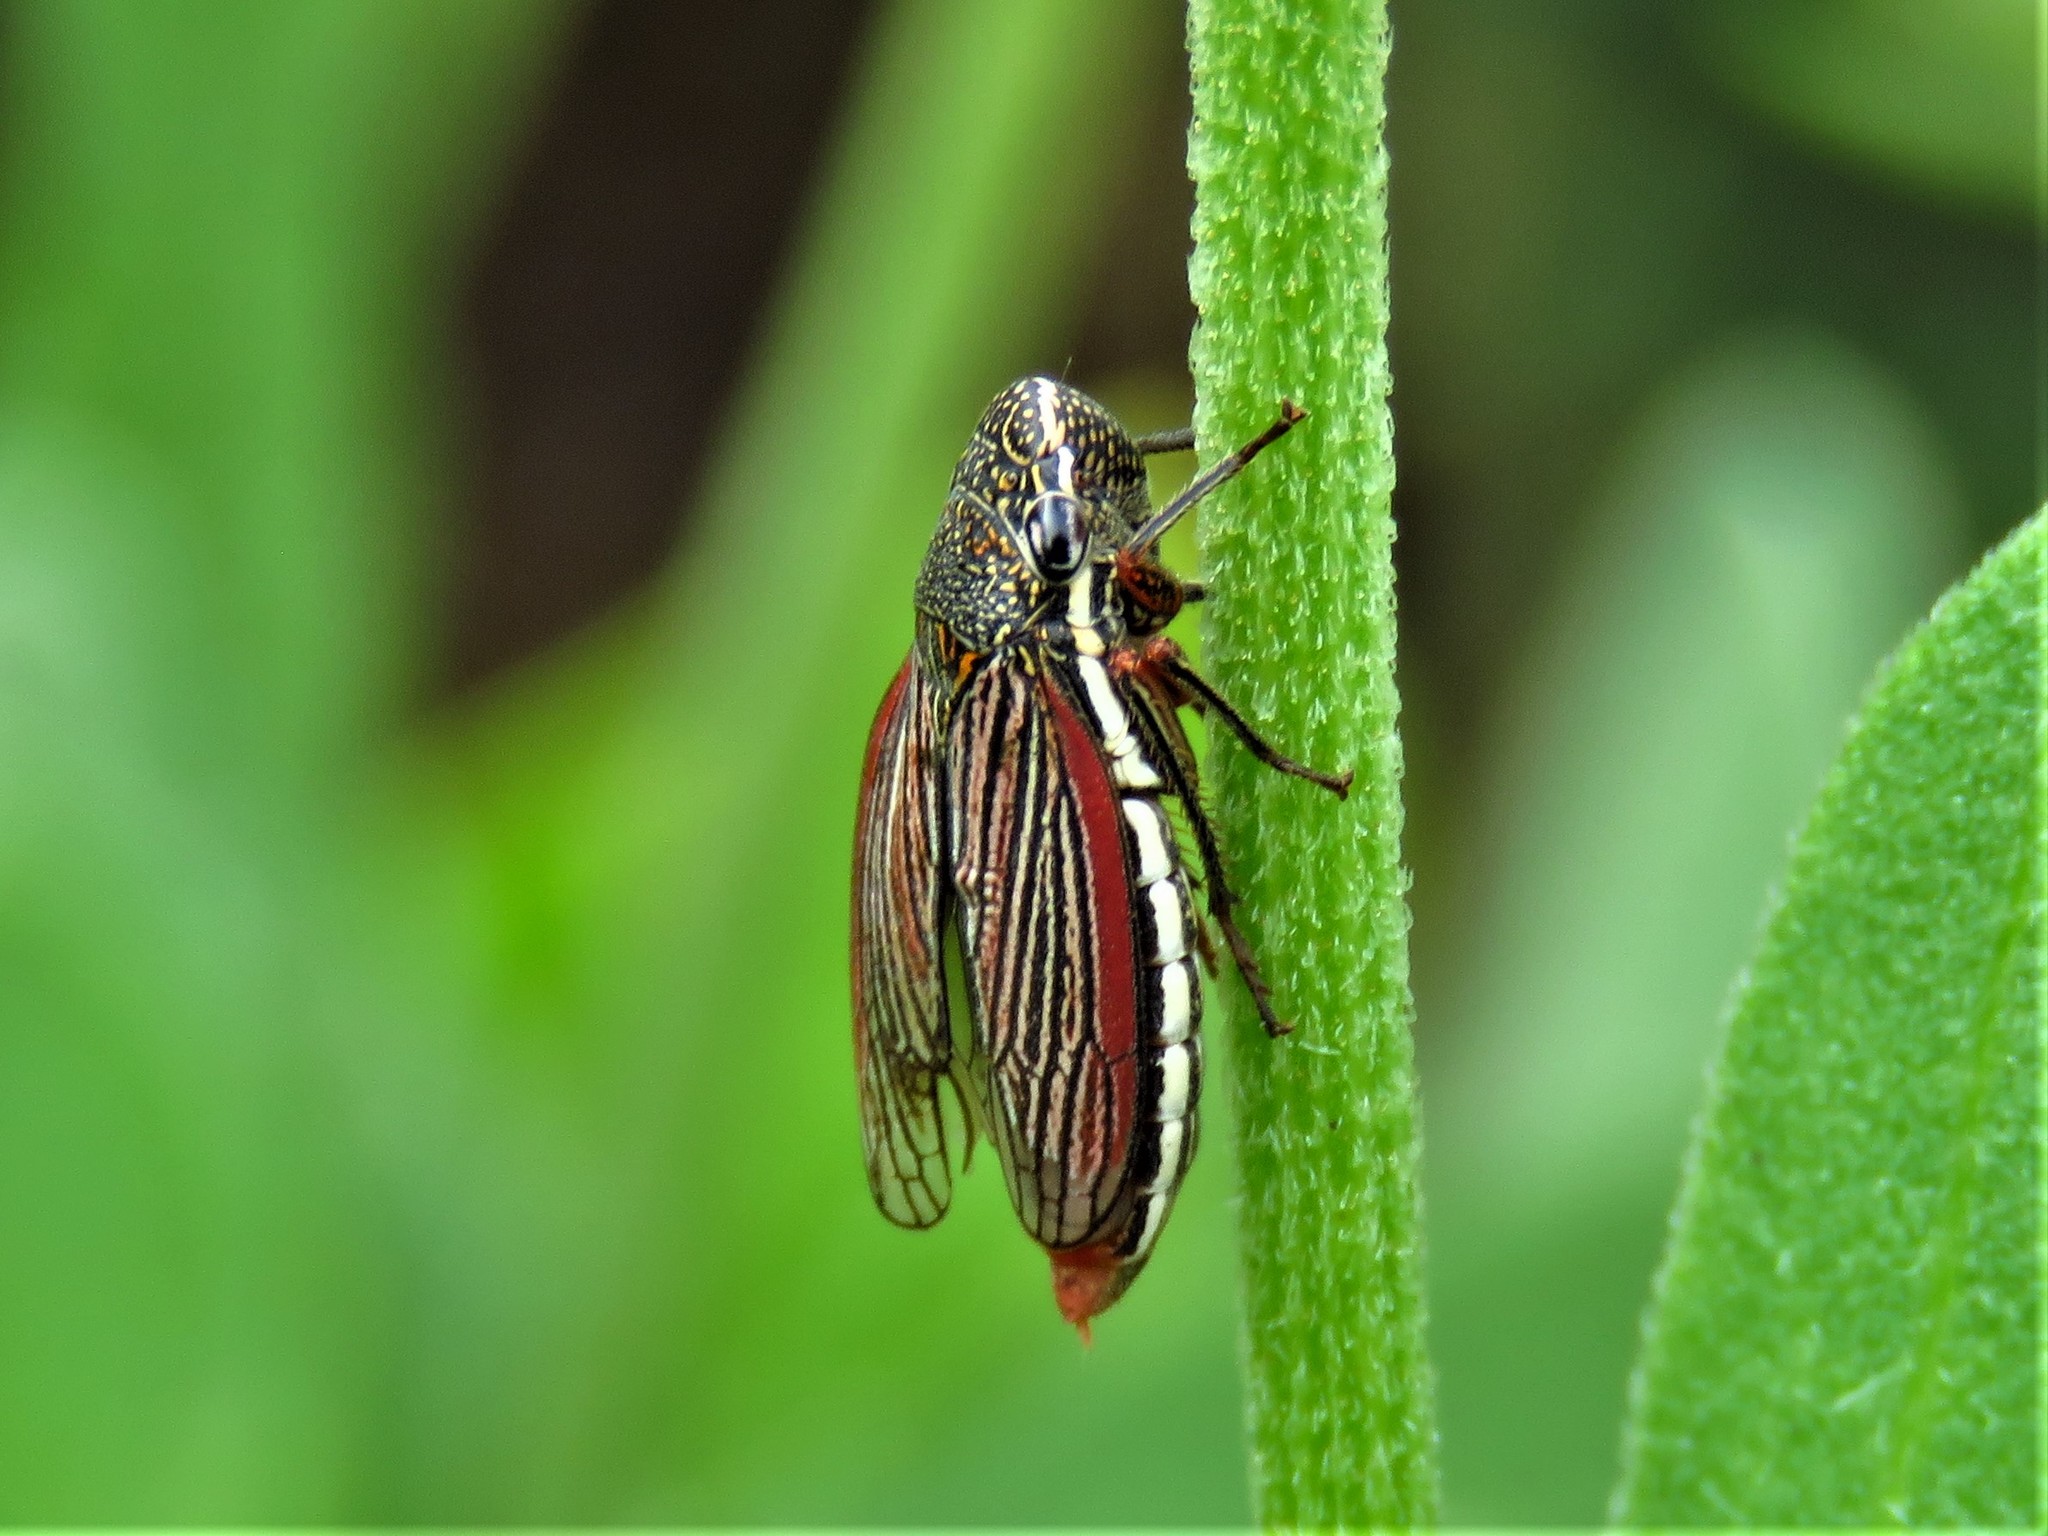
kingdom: Animalia
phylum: Arthropoda
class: Insecta
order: Hemiptera
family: Cicadellidae
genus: Cuerna
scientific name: Cuerna costalis
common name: Lateral-lined sharpshooter
